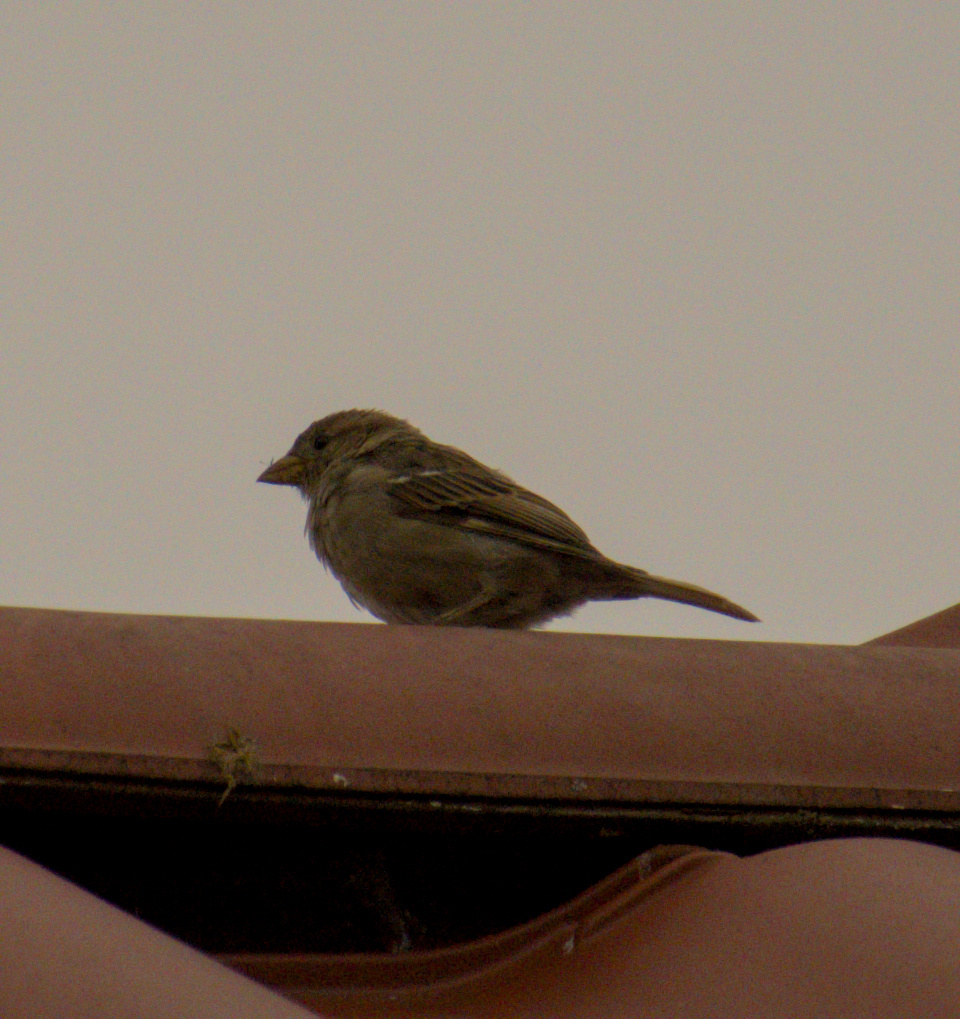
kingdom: Animalia
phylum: Chordata
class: Aves
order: Passeriformes
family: Passeridae
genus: Passer
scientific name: Passer domesticus
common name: House sparrow
